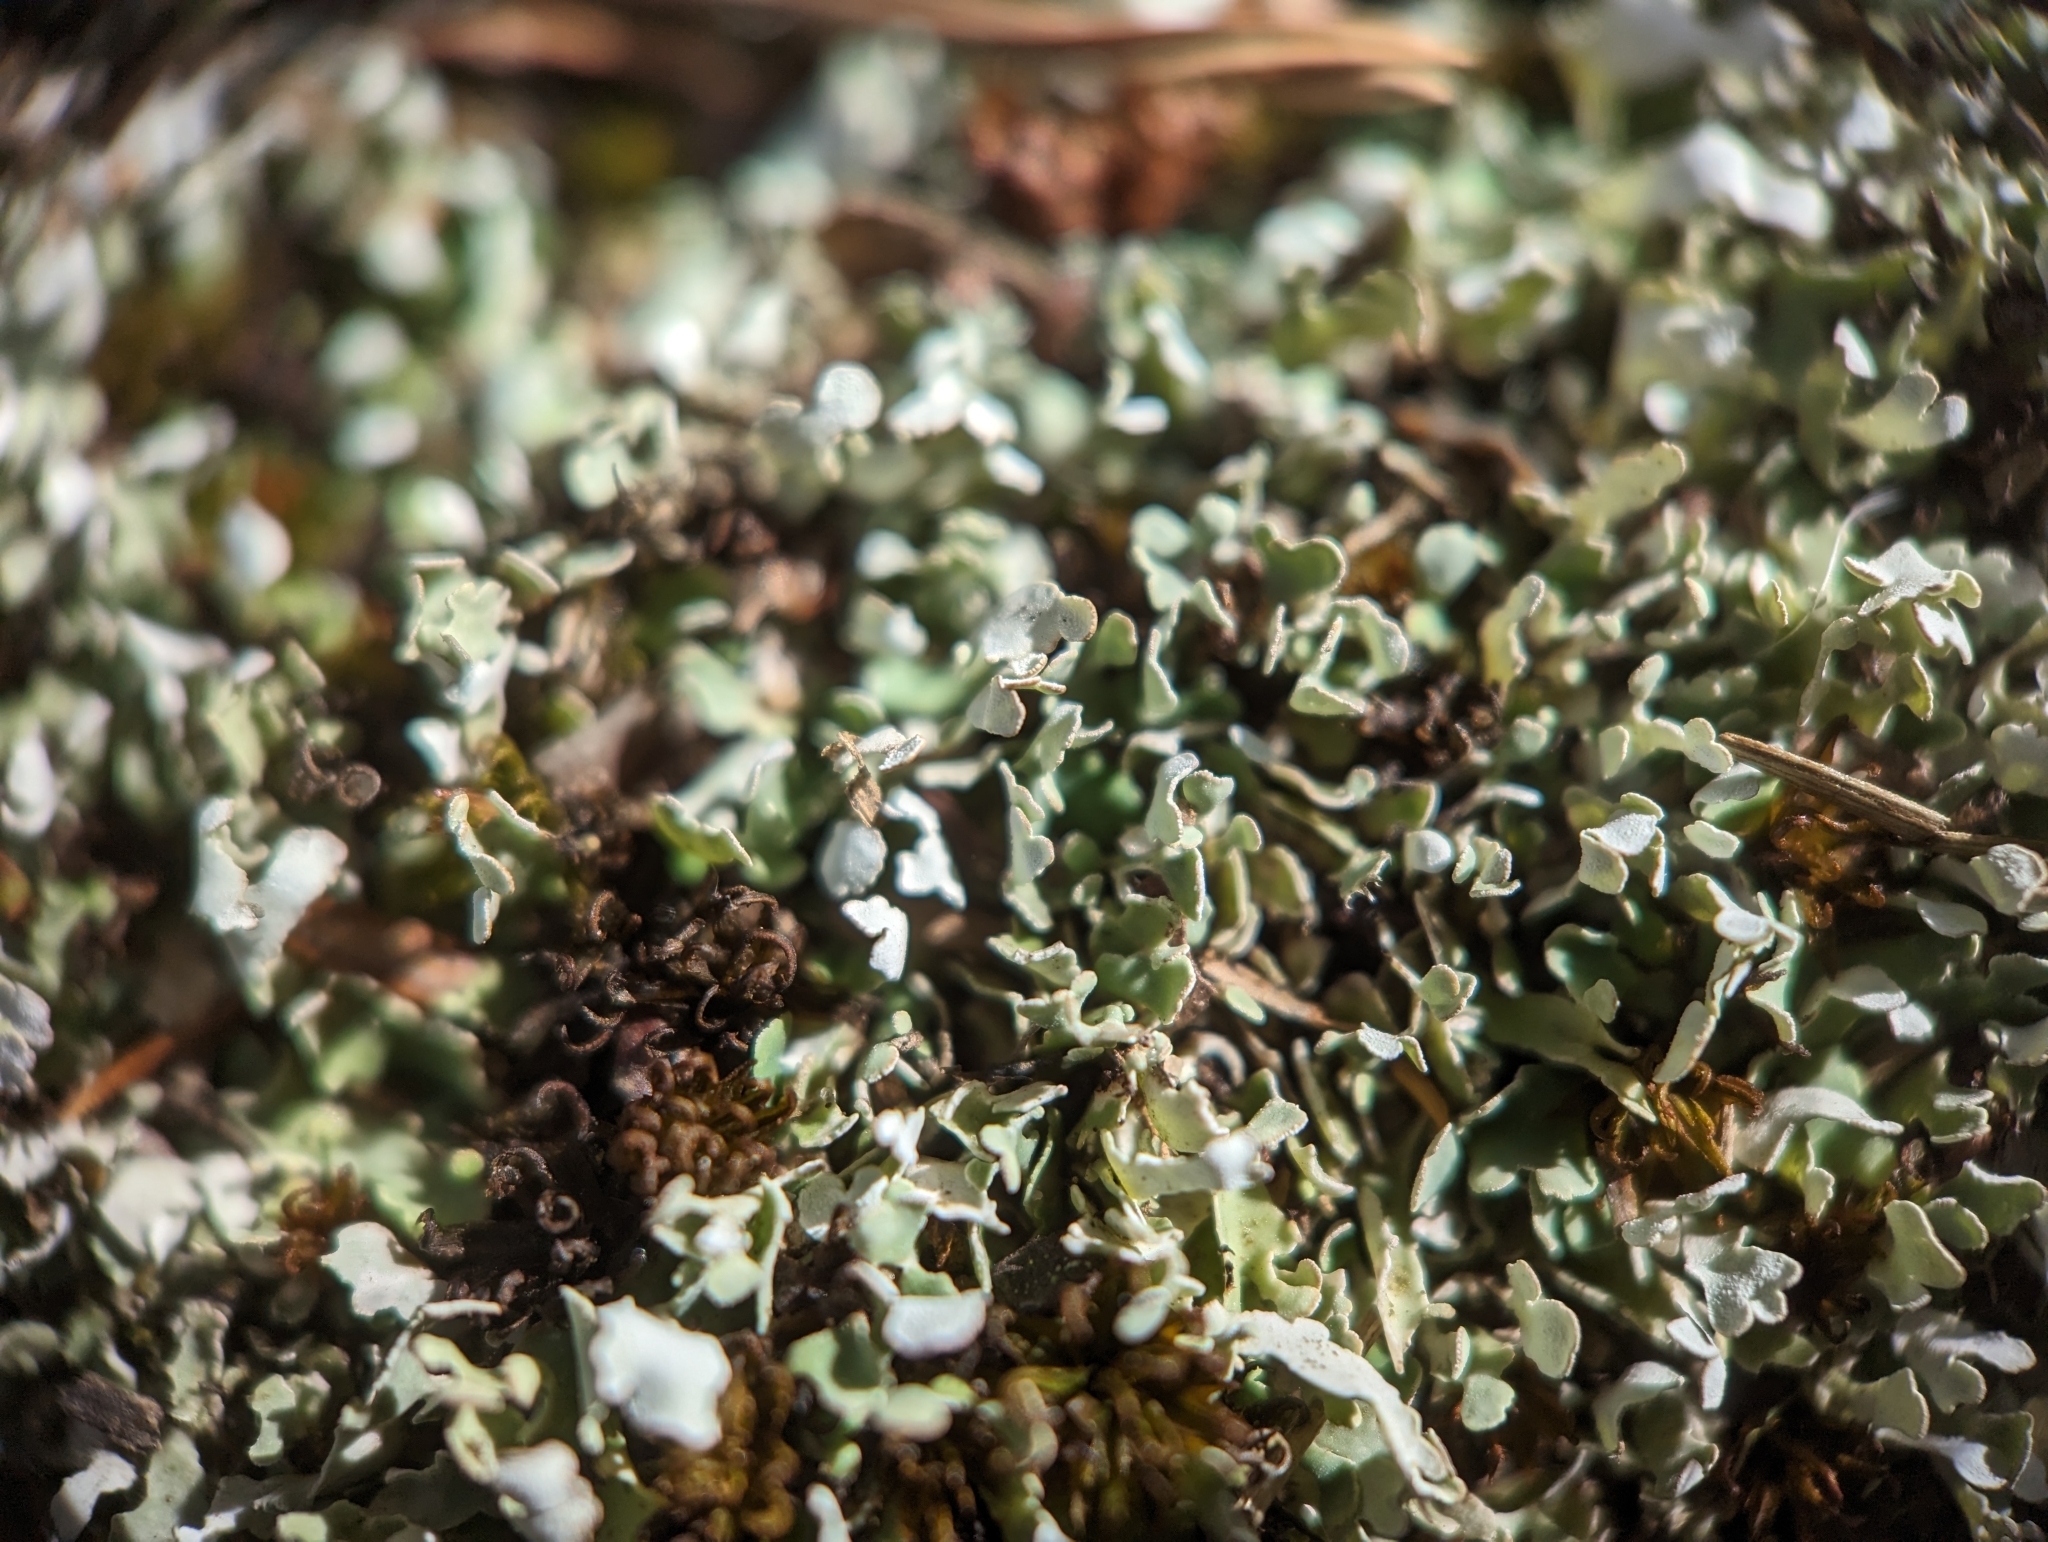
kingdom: Fungi
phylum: Ascomycota
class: Lecanoromycetes
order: Lecanorales
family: Cladoniaceae
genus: Cladonia
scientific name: Cladonia apodocarpa
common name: Stalkless cladonia
